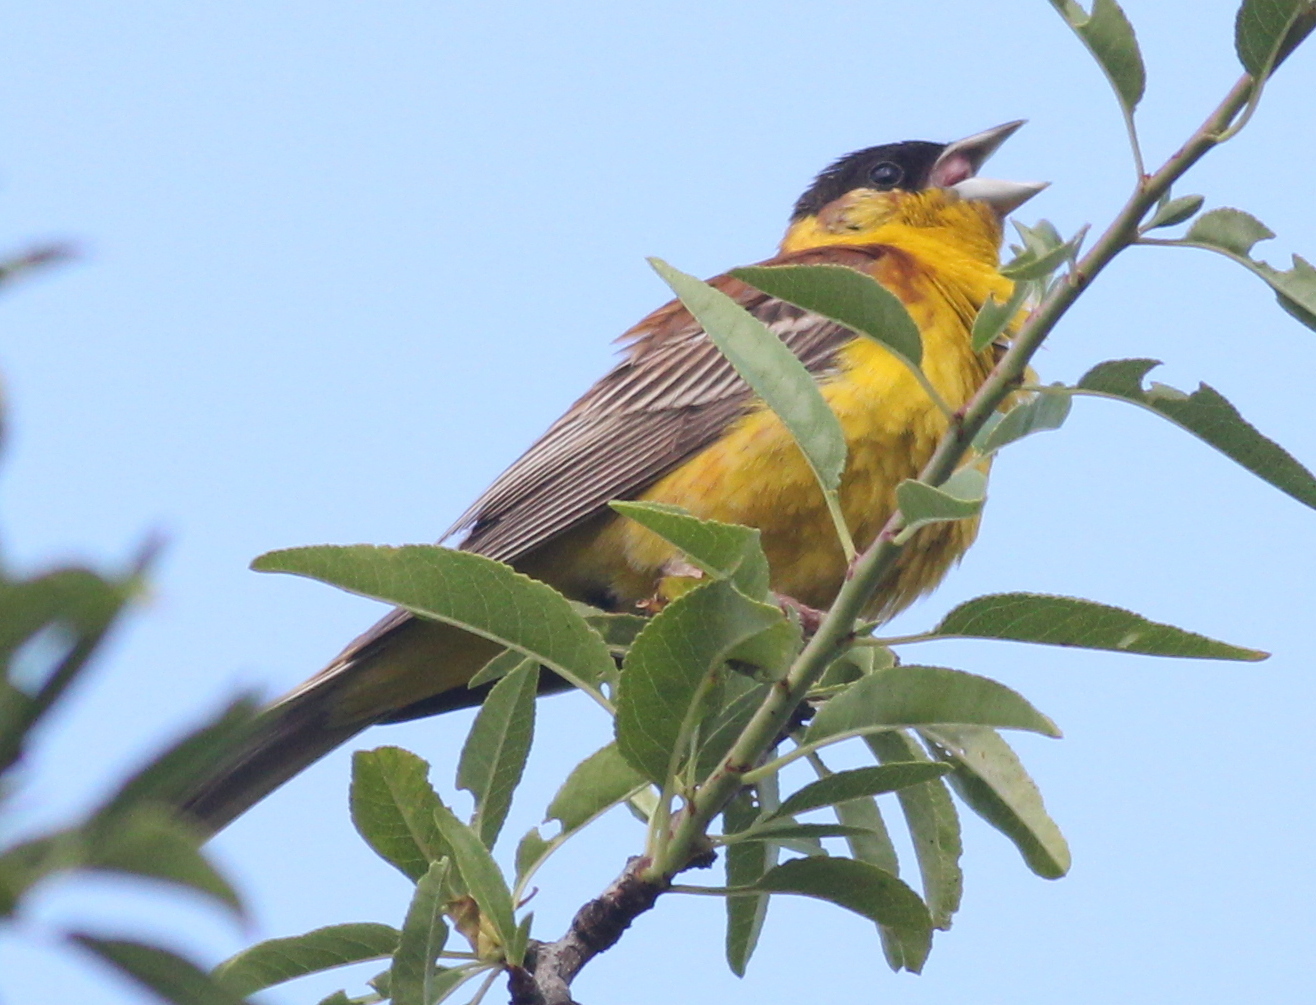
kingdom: Animalia
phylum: Chordata
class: Aves
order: Passeriformes
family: Emberizidae
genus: Emberiza
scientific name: Emberiza melanocephala
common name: Black-headed bunting
